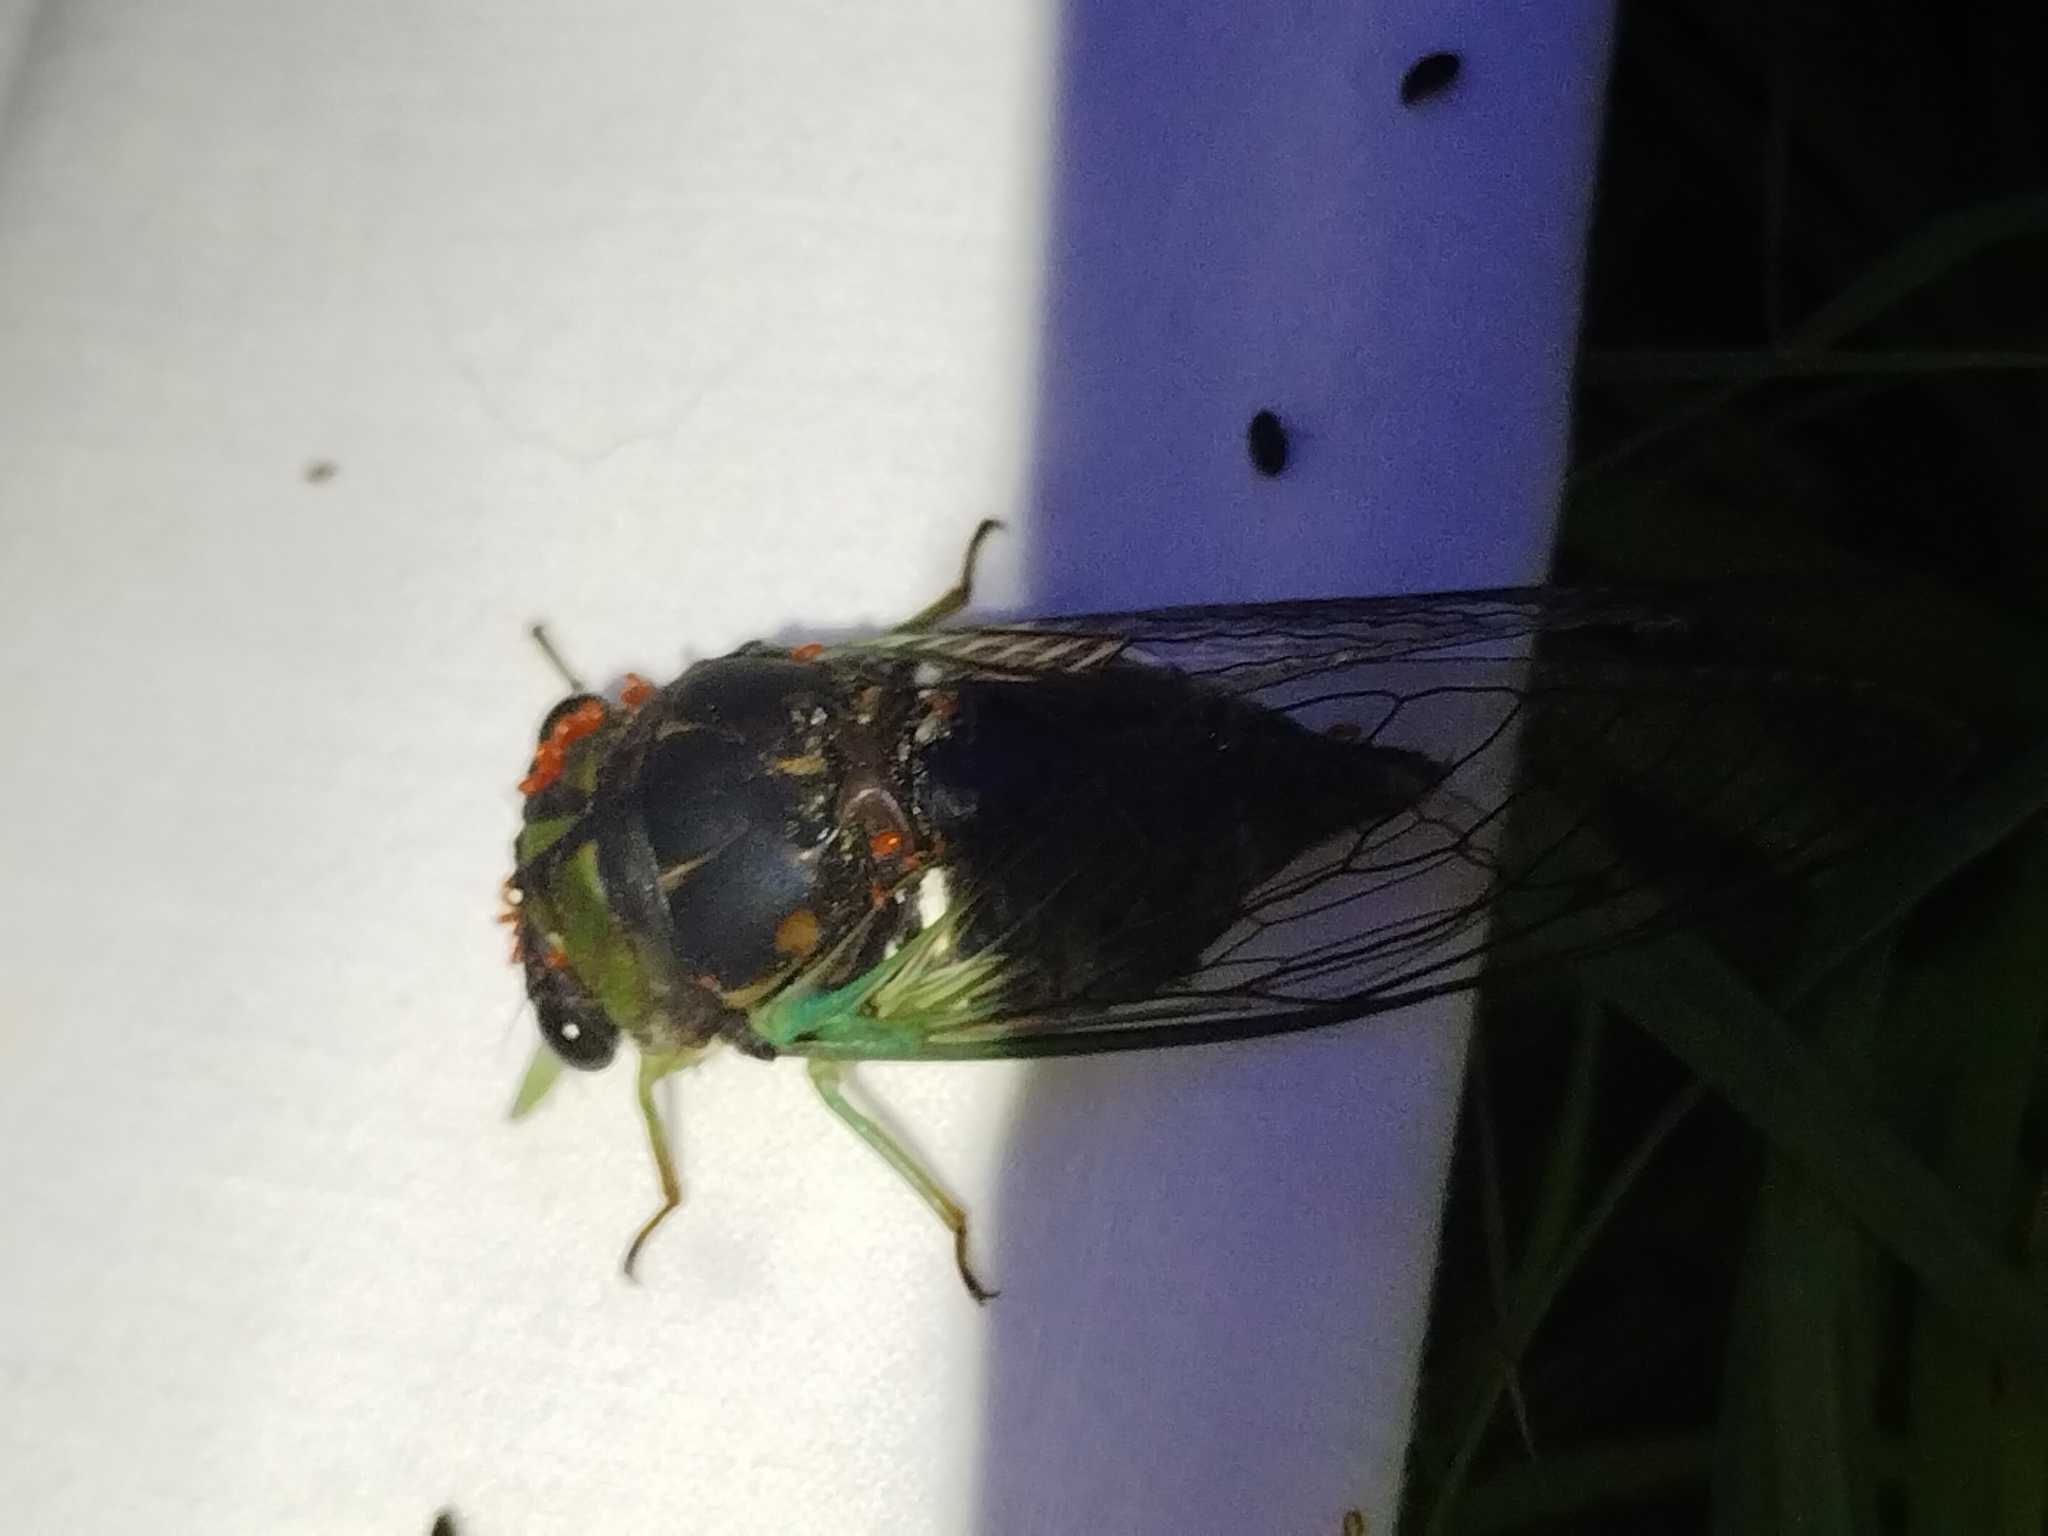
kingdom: Animalia
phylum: Arthropoda
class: Insecta
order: Hemiptera
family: Cicadidae
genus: Neotibicen
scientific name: Neotibicen tibicen
